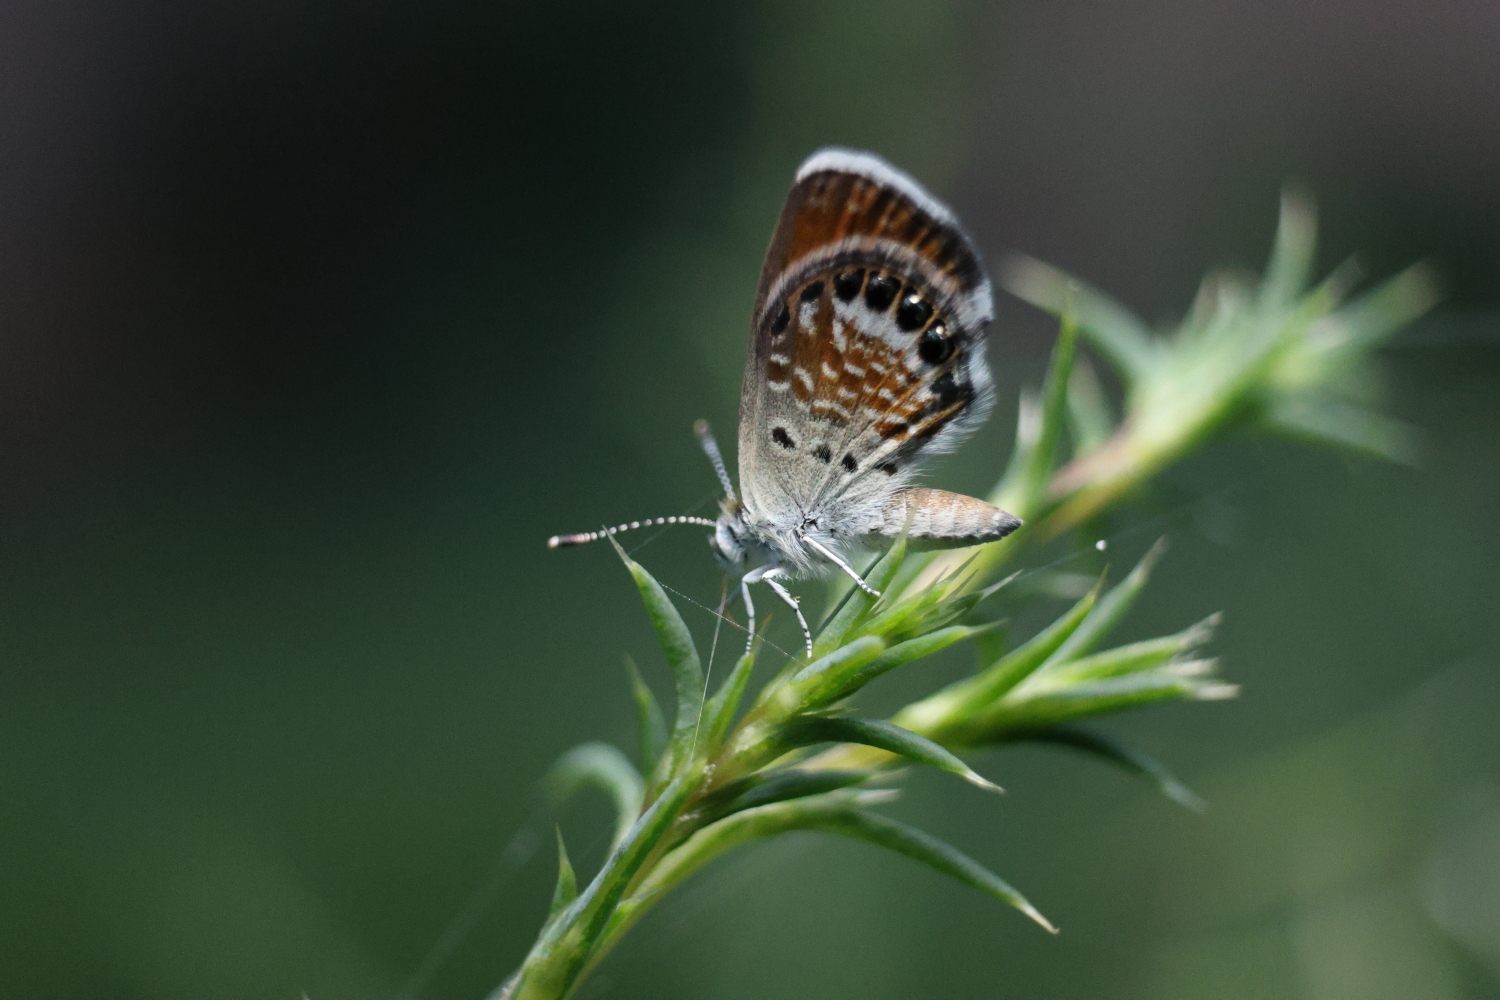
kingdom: Animalia
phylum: Arthropoda
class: Insecta
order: Lepidoptera
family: Lycaenidae
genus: Brephidium
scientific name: Brephidium exilis
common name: Pygmy blue
